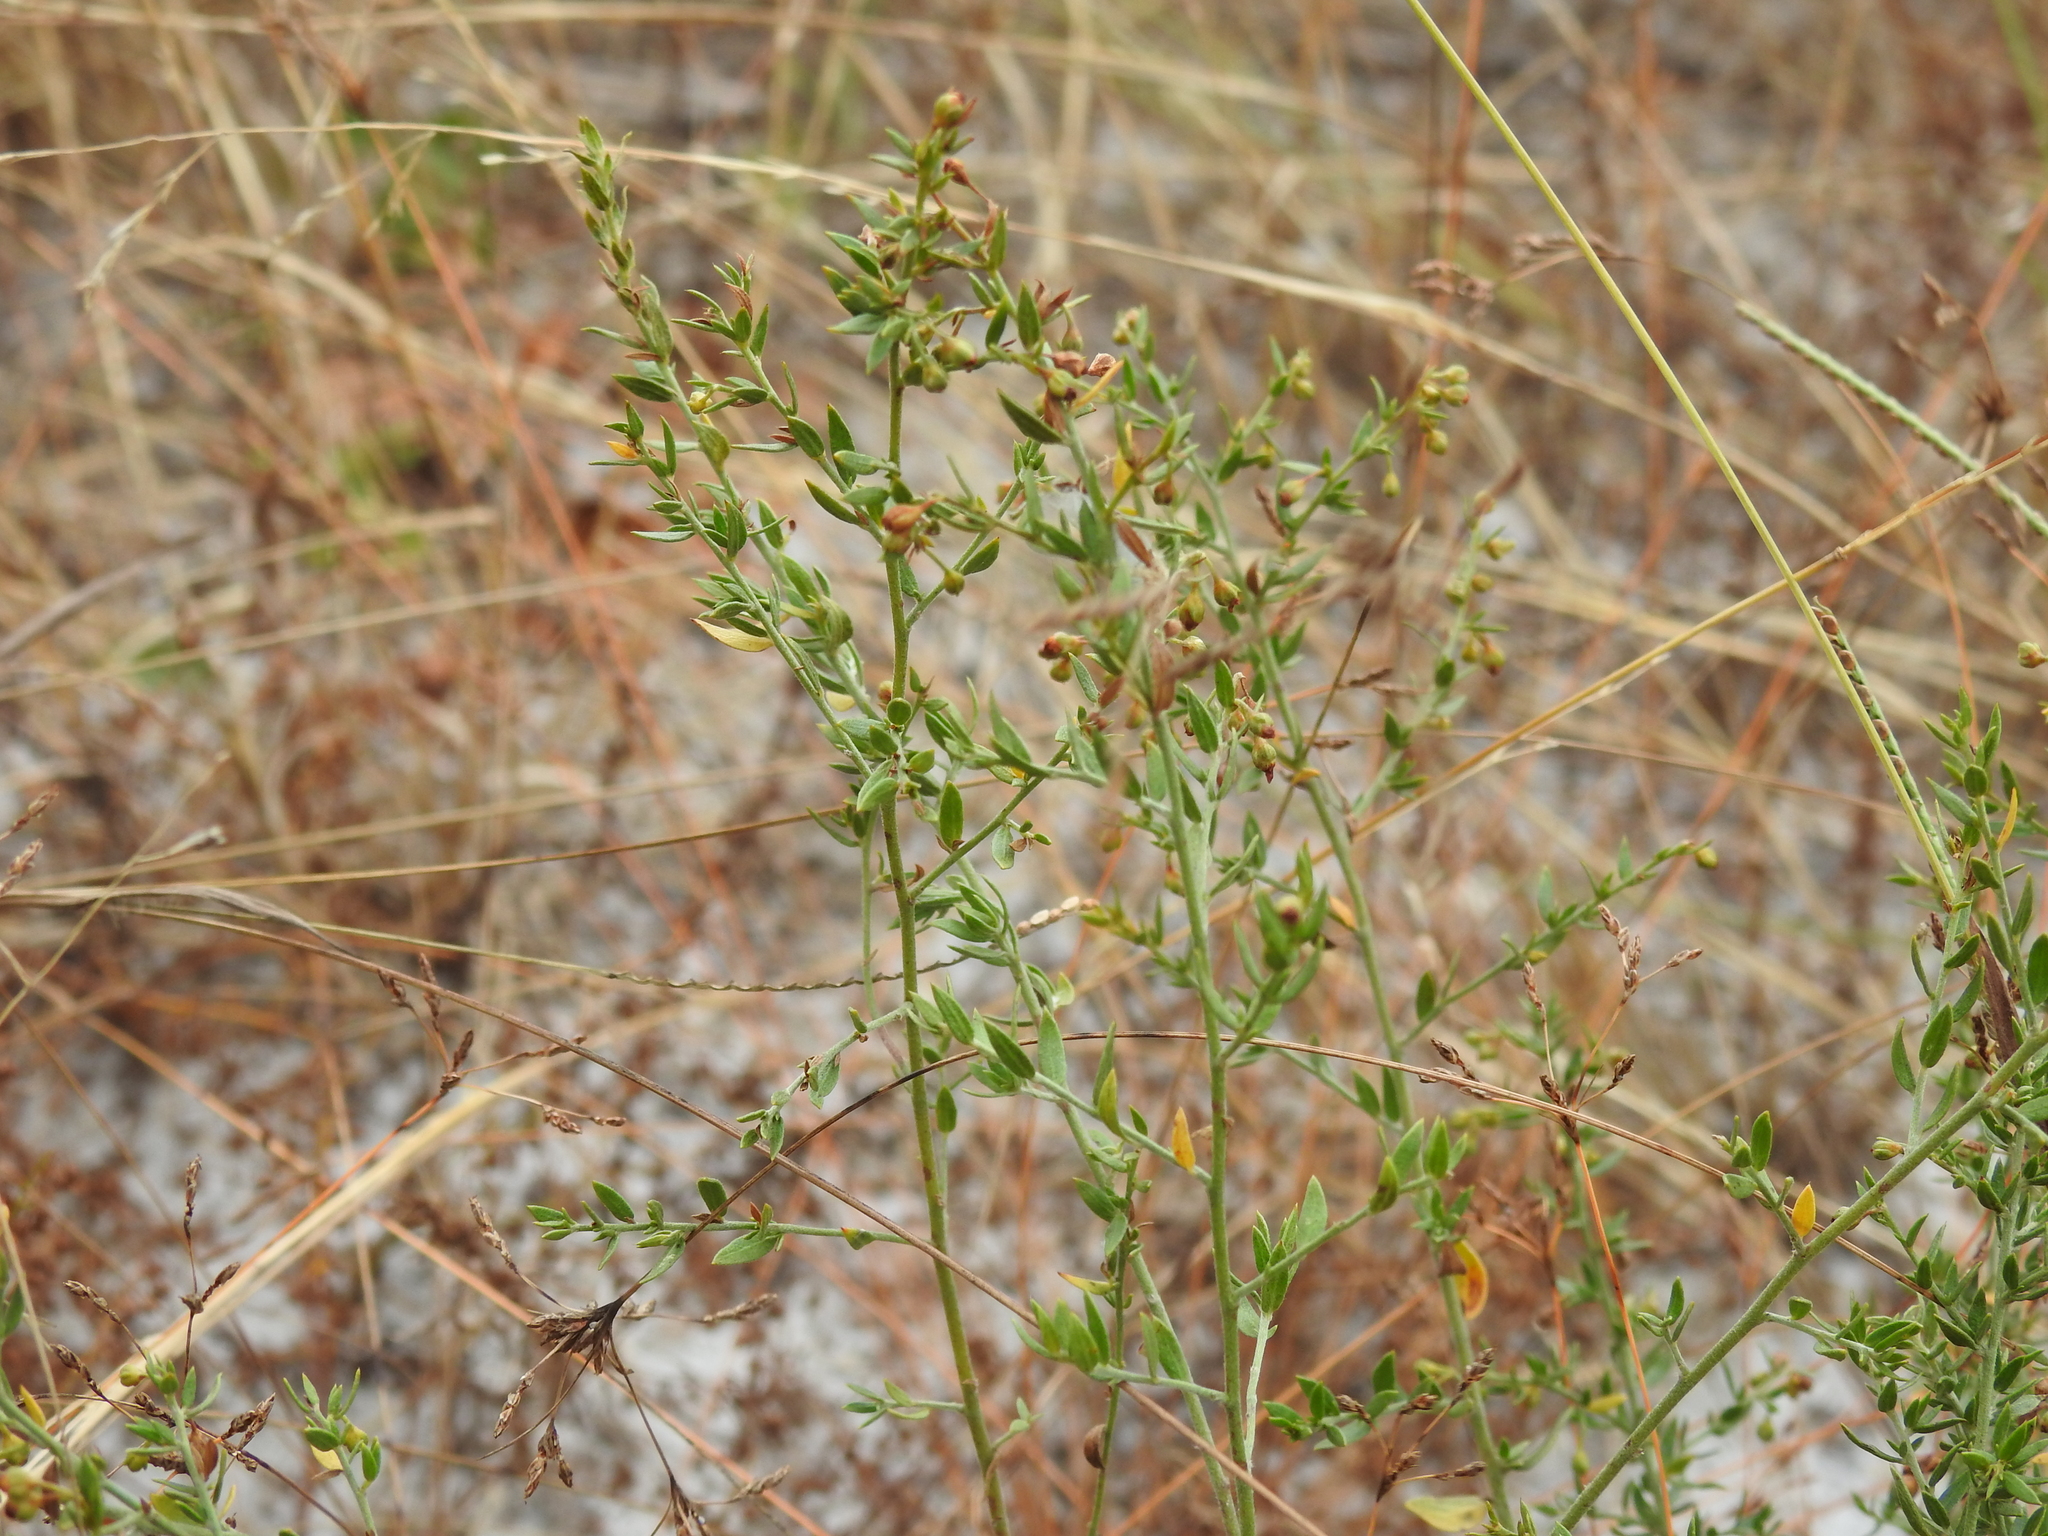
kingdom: Plantae
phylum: Tracheophyta
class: Magnoliopsida
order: Malvales
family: Cistaceae
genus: Lechea
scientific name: Lechea cernua
